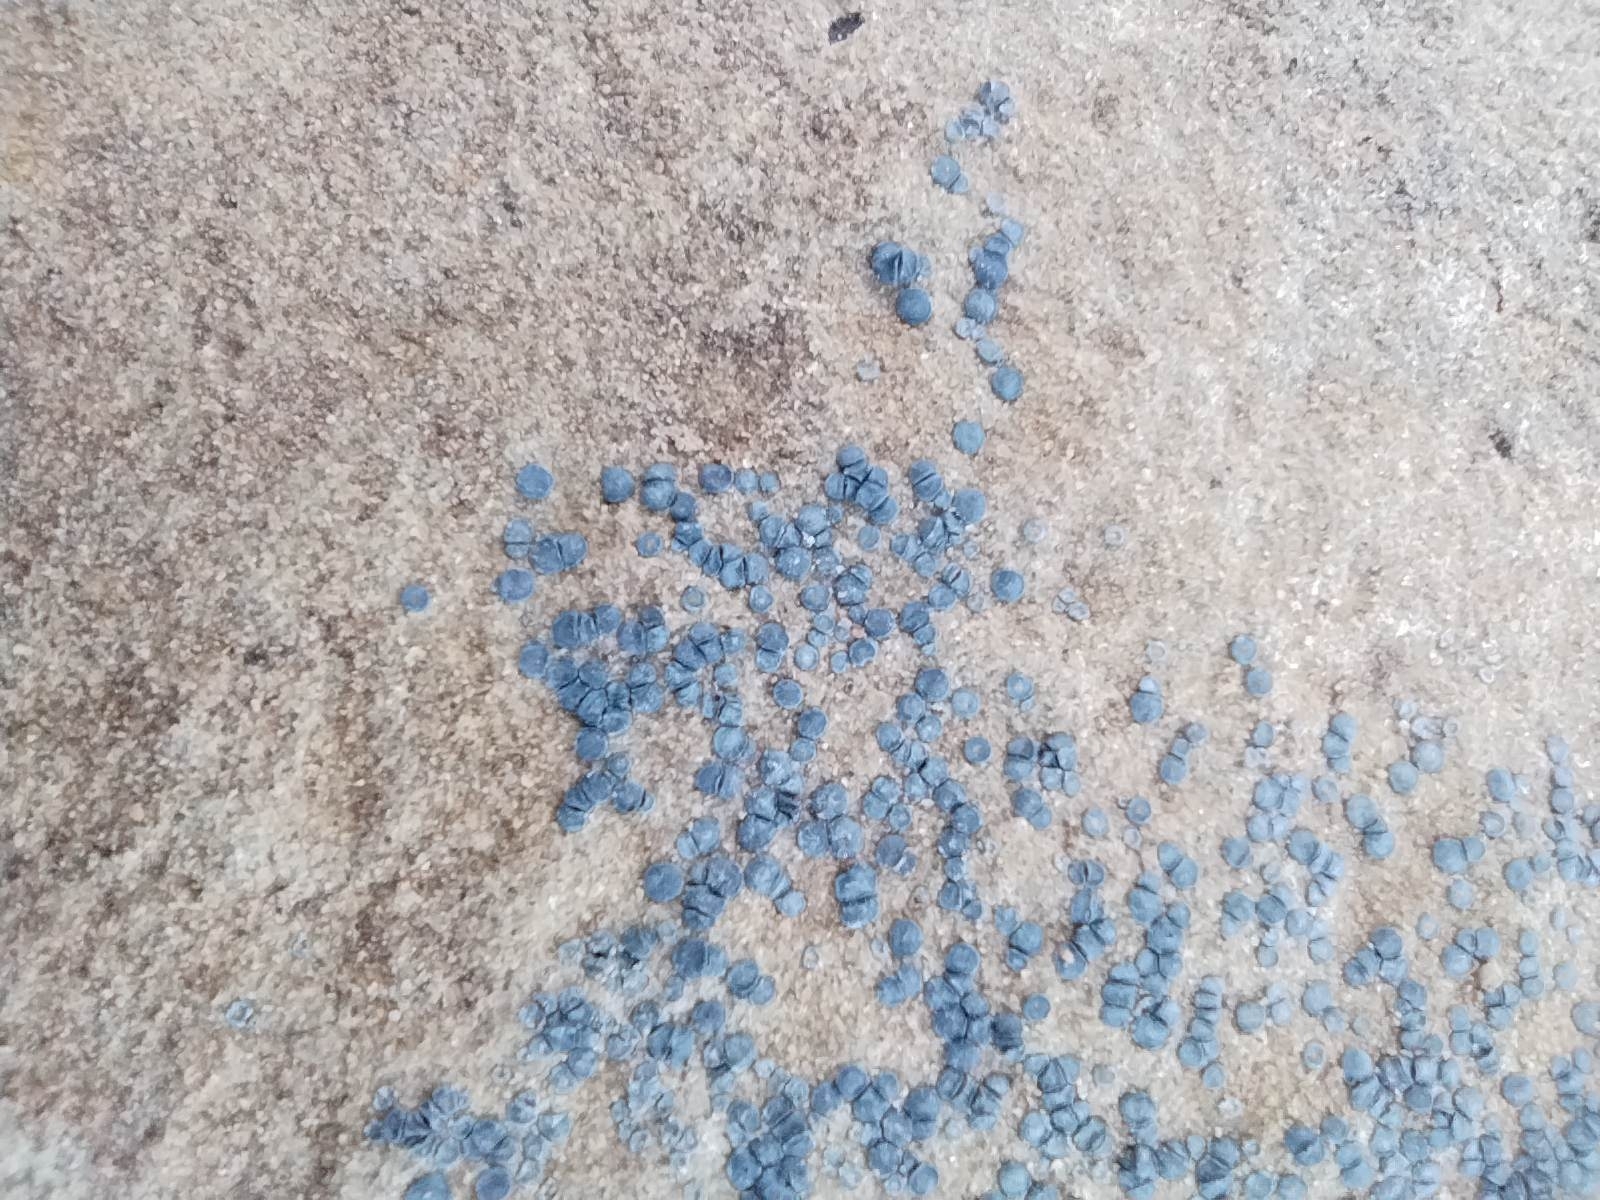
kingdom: Fungi
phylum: Ascomycota
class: Lecanoromycetes
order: Acarosporales
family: Acarosporaceae
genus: Sarcogyne
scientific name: Sarcogyne regularis
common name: Frosted grain-spored lichen
